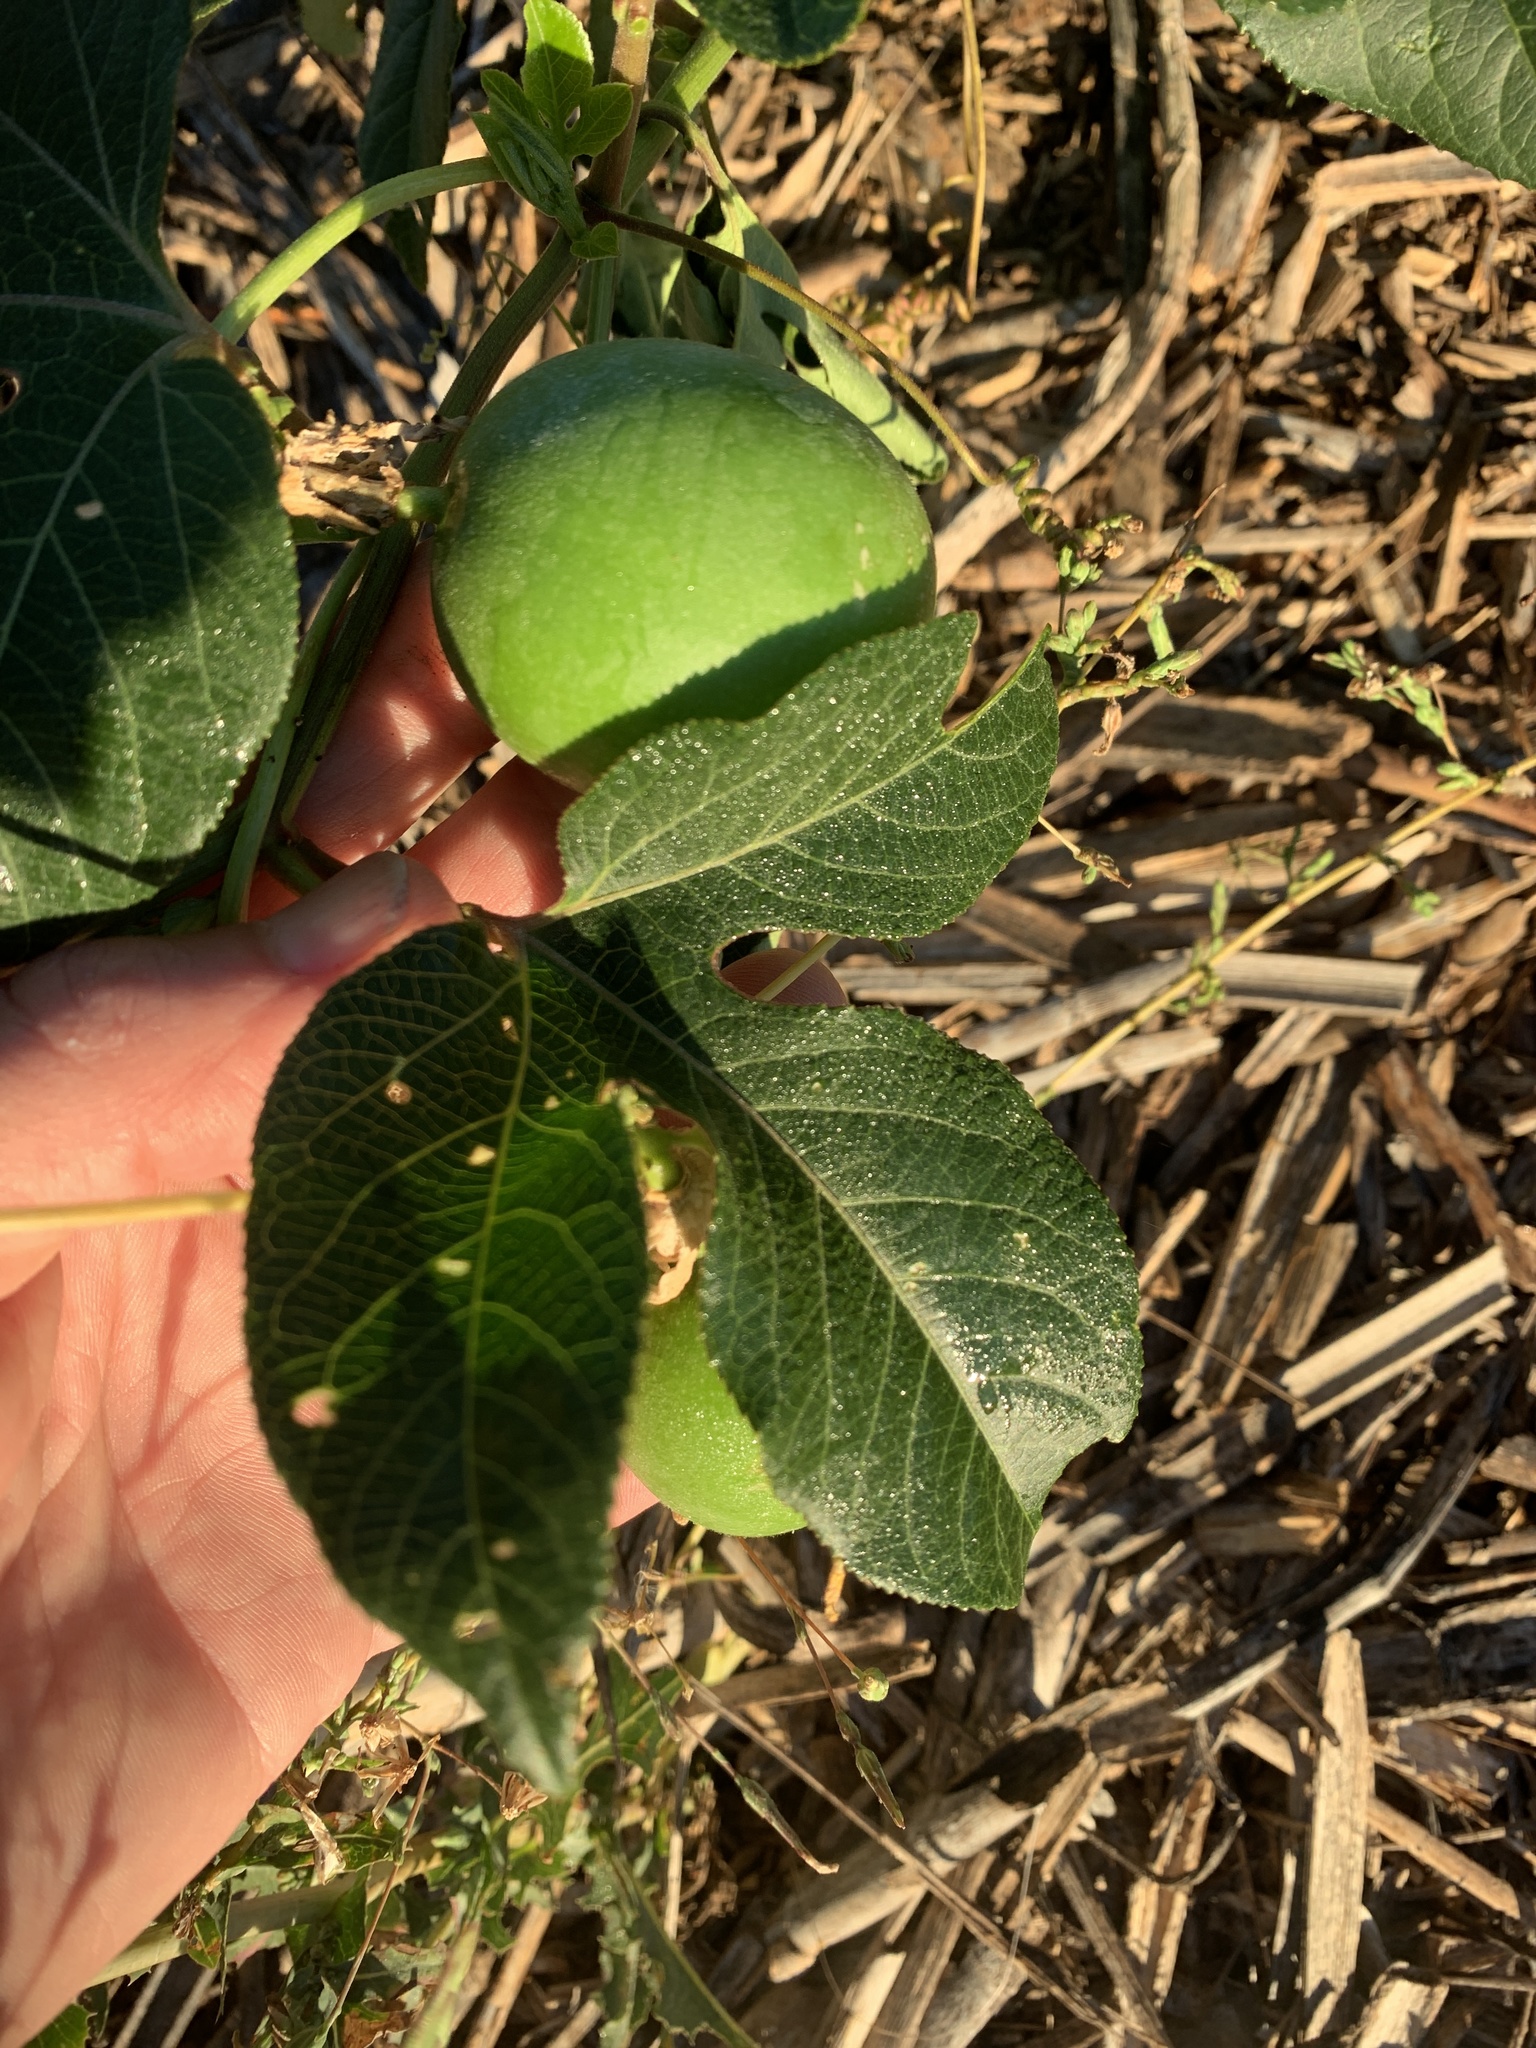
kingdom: Plantae
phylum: Tracheophyta
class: Magnoliopsida
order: Malpighiales
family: Passifloraceae
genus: Passiflora
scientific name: Passiflora incarnata
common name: Apricot-vine
